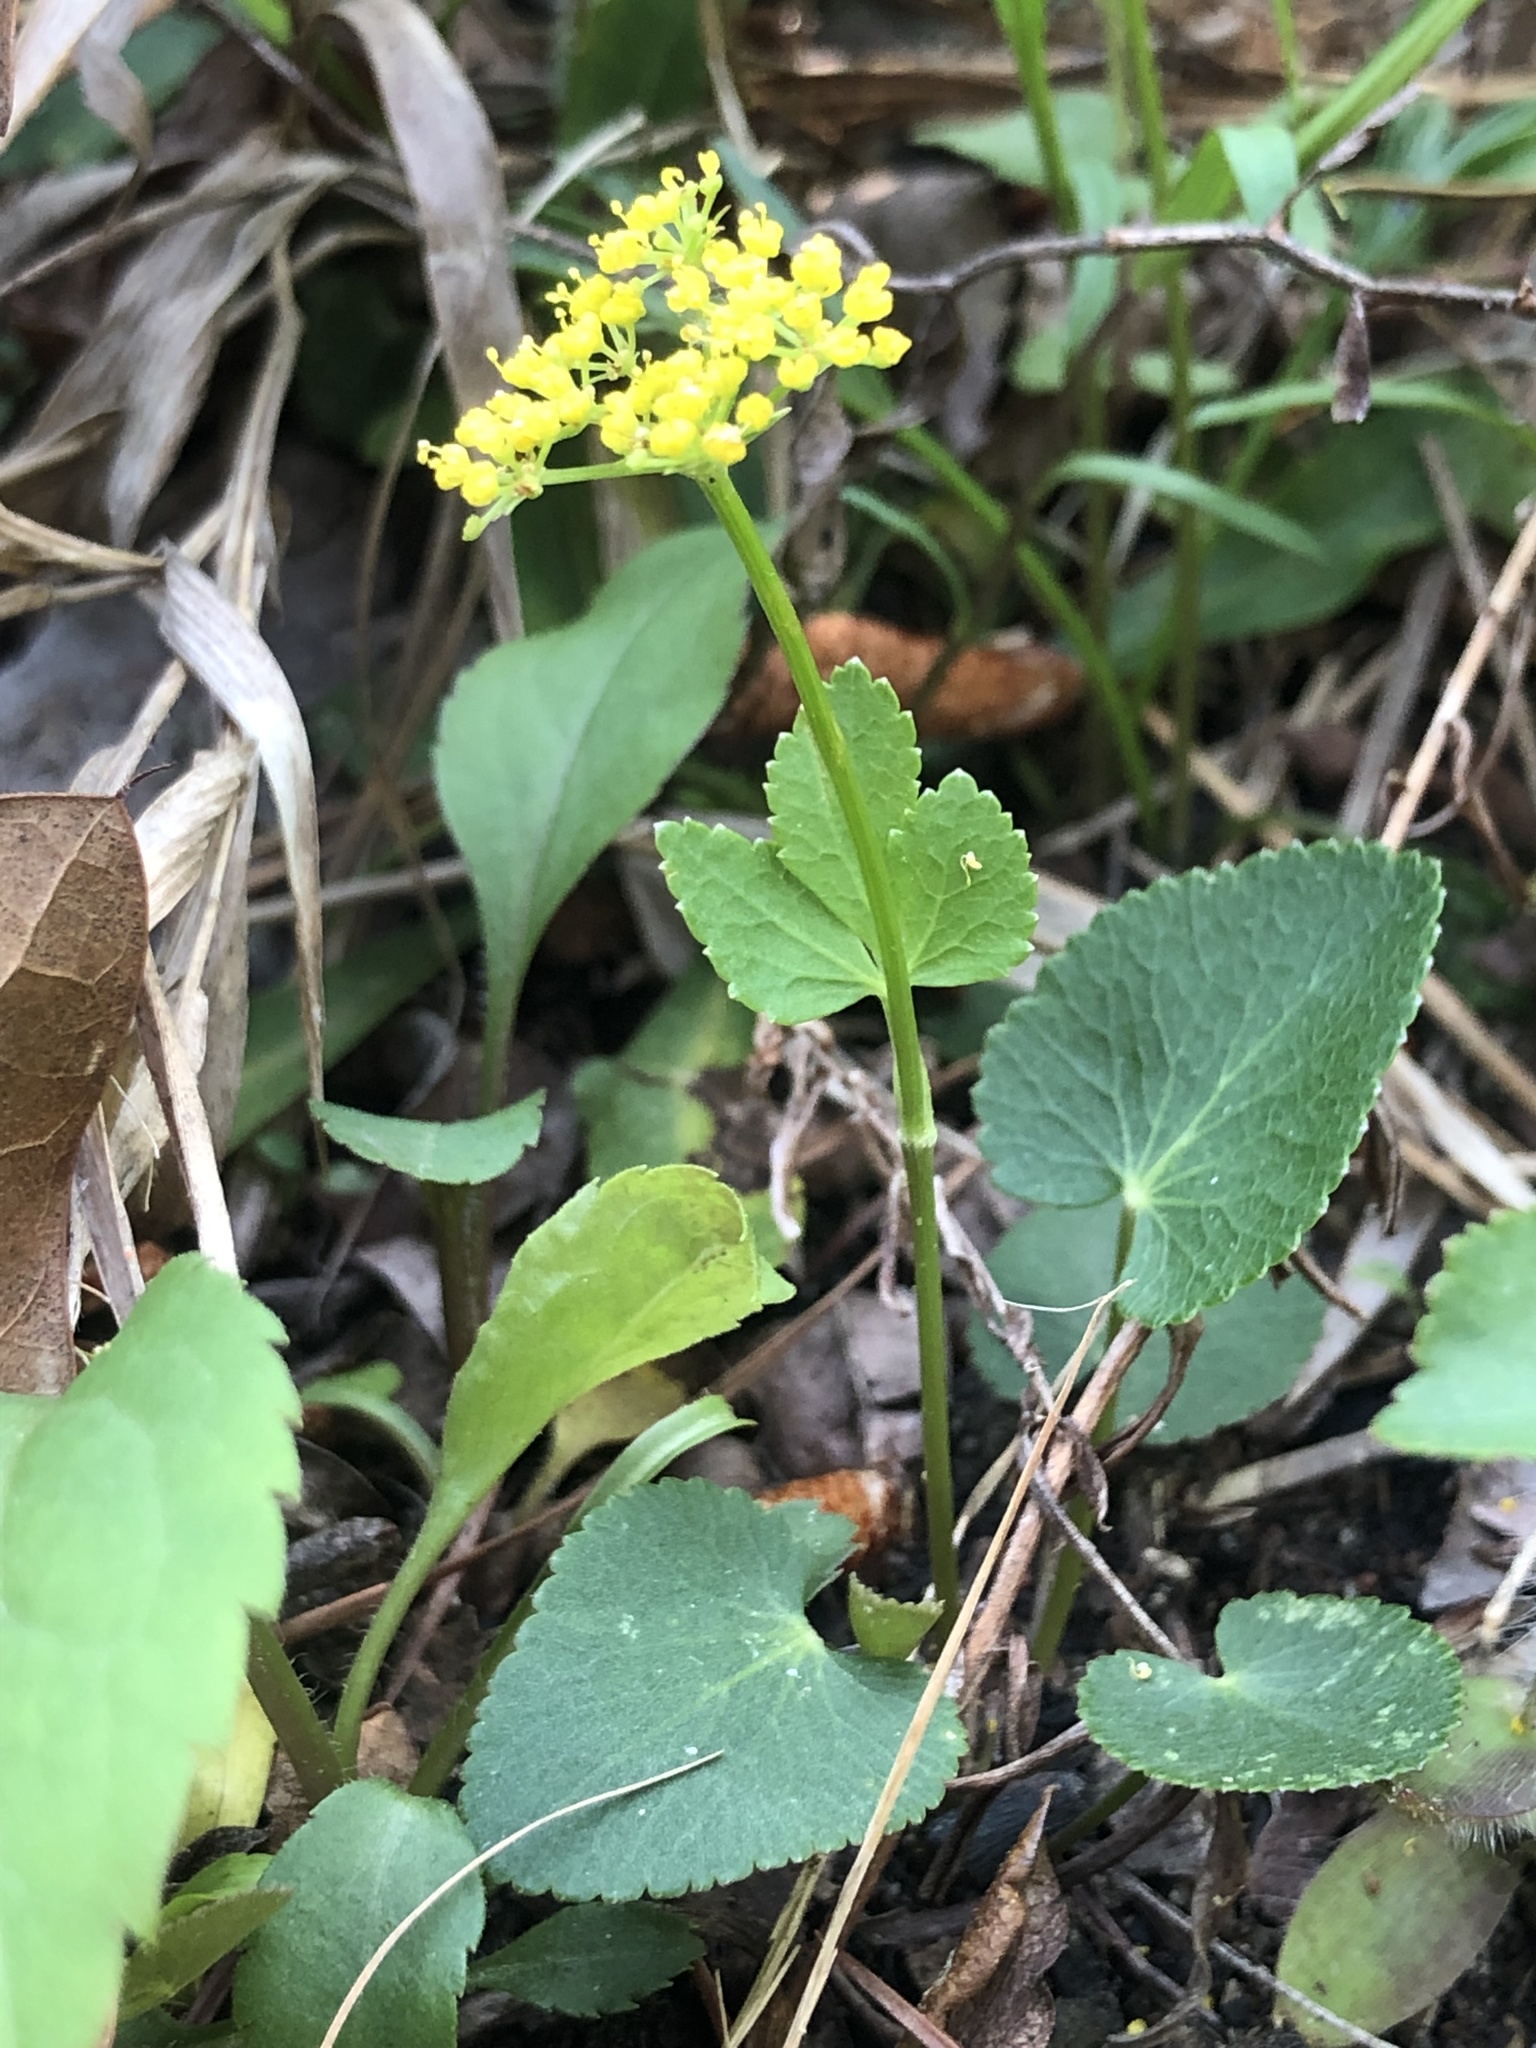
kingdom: Plantae
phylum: Tracheophyta
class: Magnoliopsida
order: Apiales
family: Apiaceae
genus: Zizia
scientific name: Zizia aptera
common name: Heart-leaved alexanders
